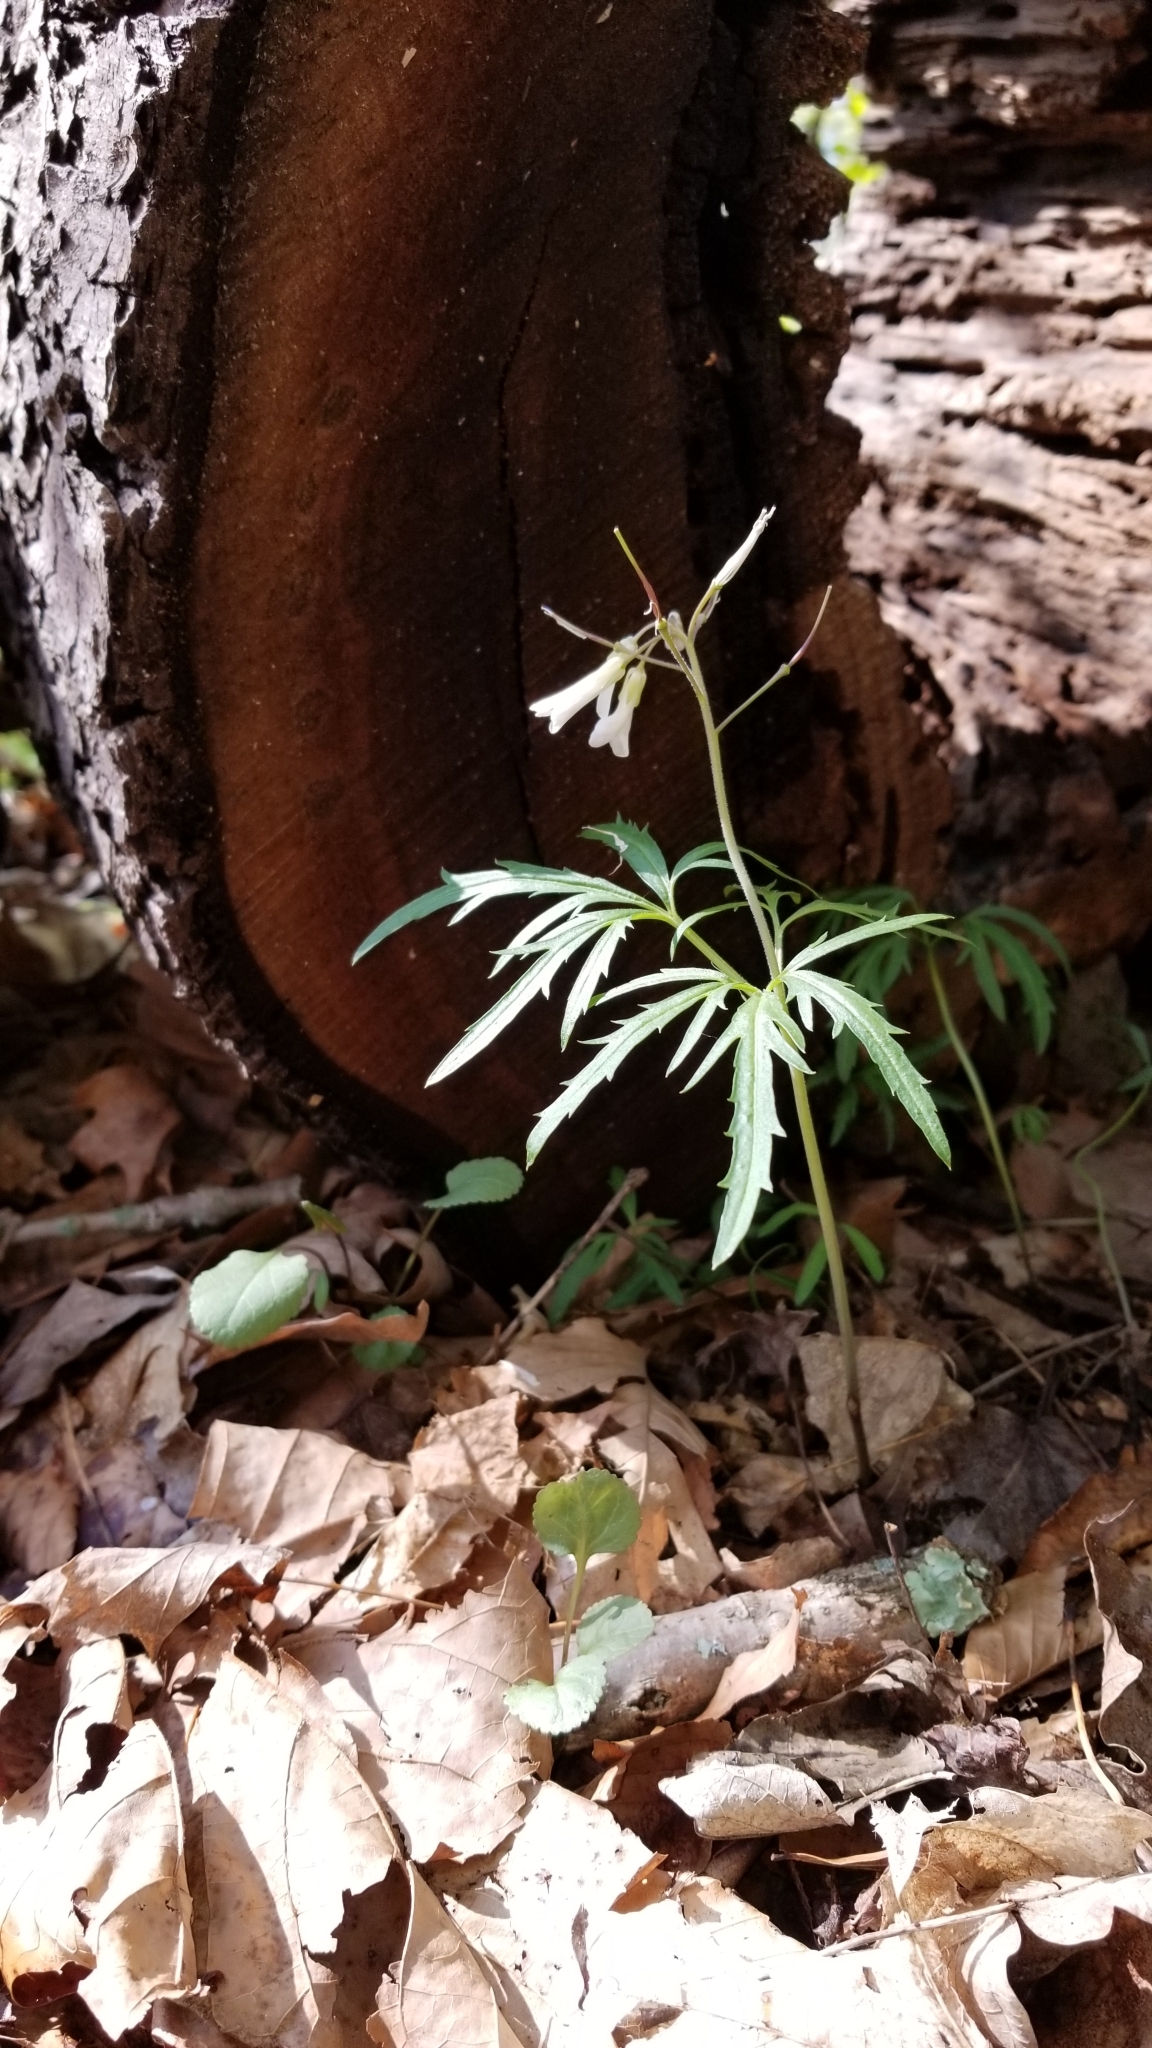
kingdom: Plantae
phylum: Tracheophyta
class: Magnoliopsida
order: Brassicales
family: Brassicaceae
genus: Cardamine
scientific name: Cardamine concatenata
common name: Cut-leaf toothcup
